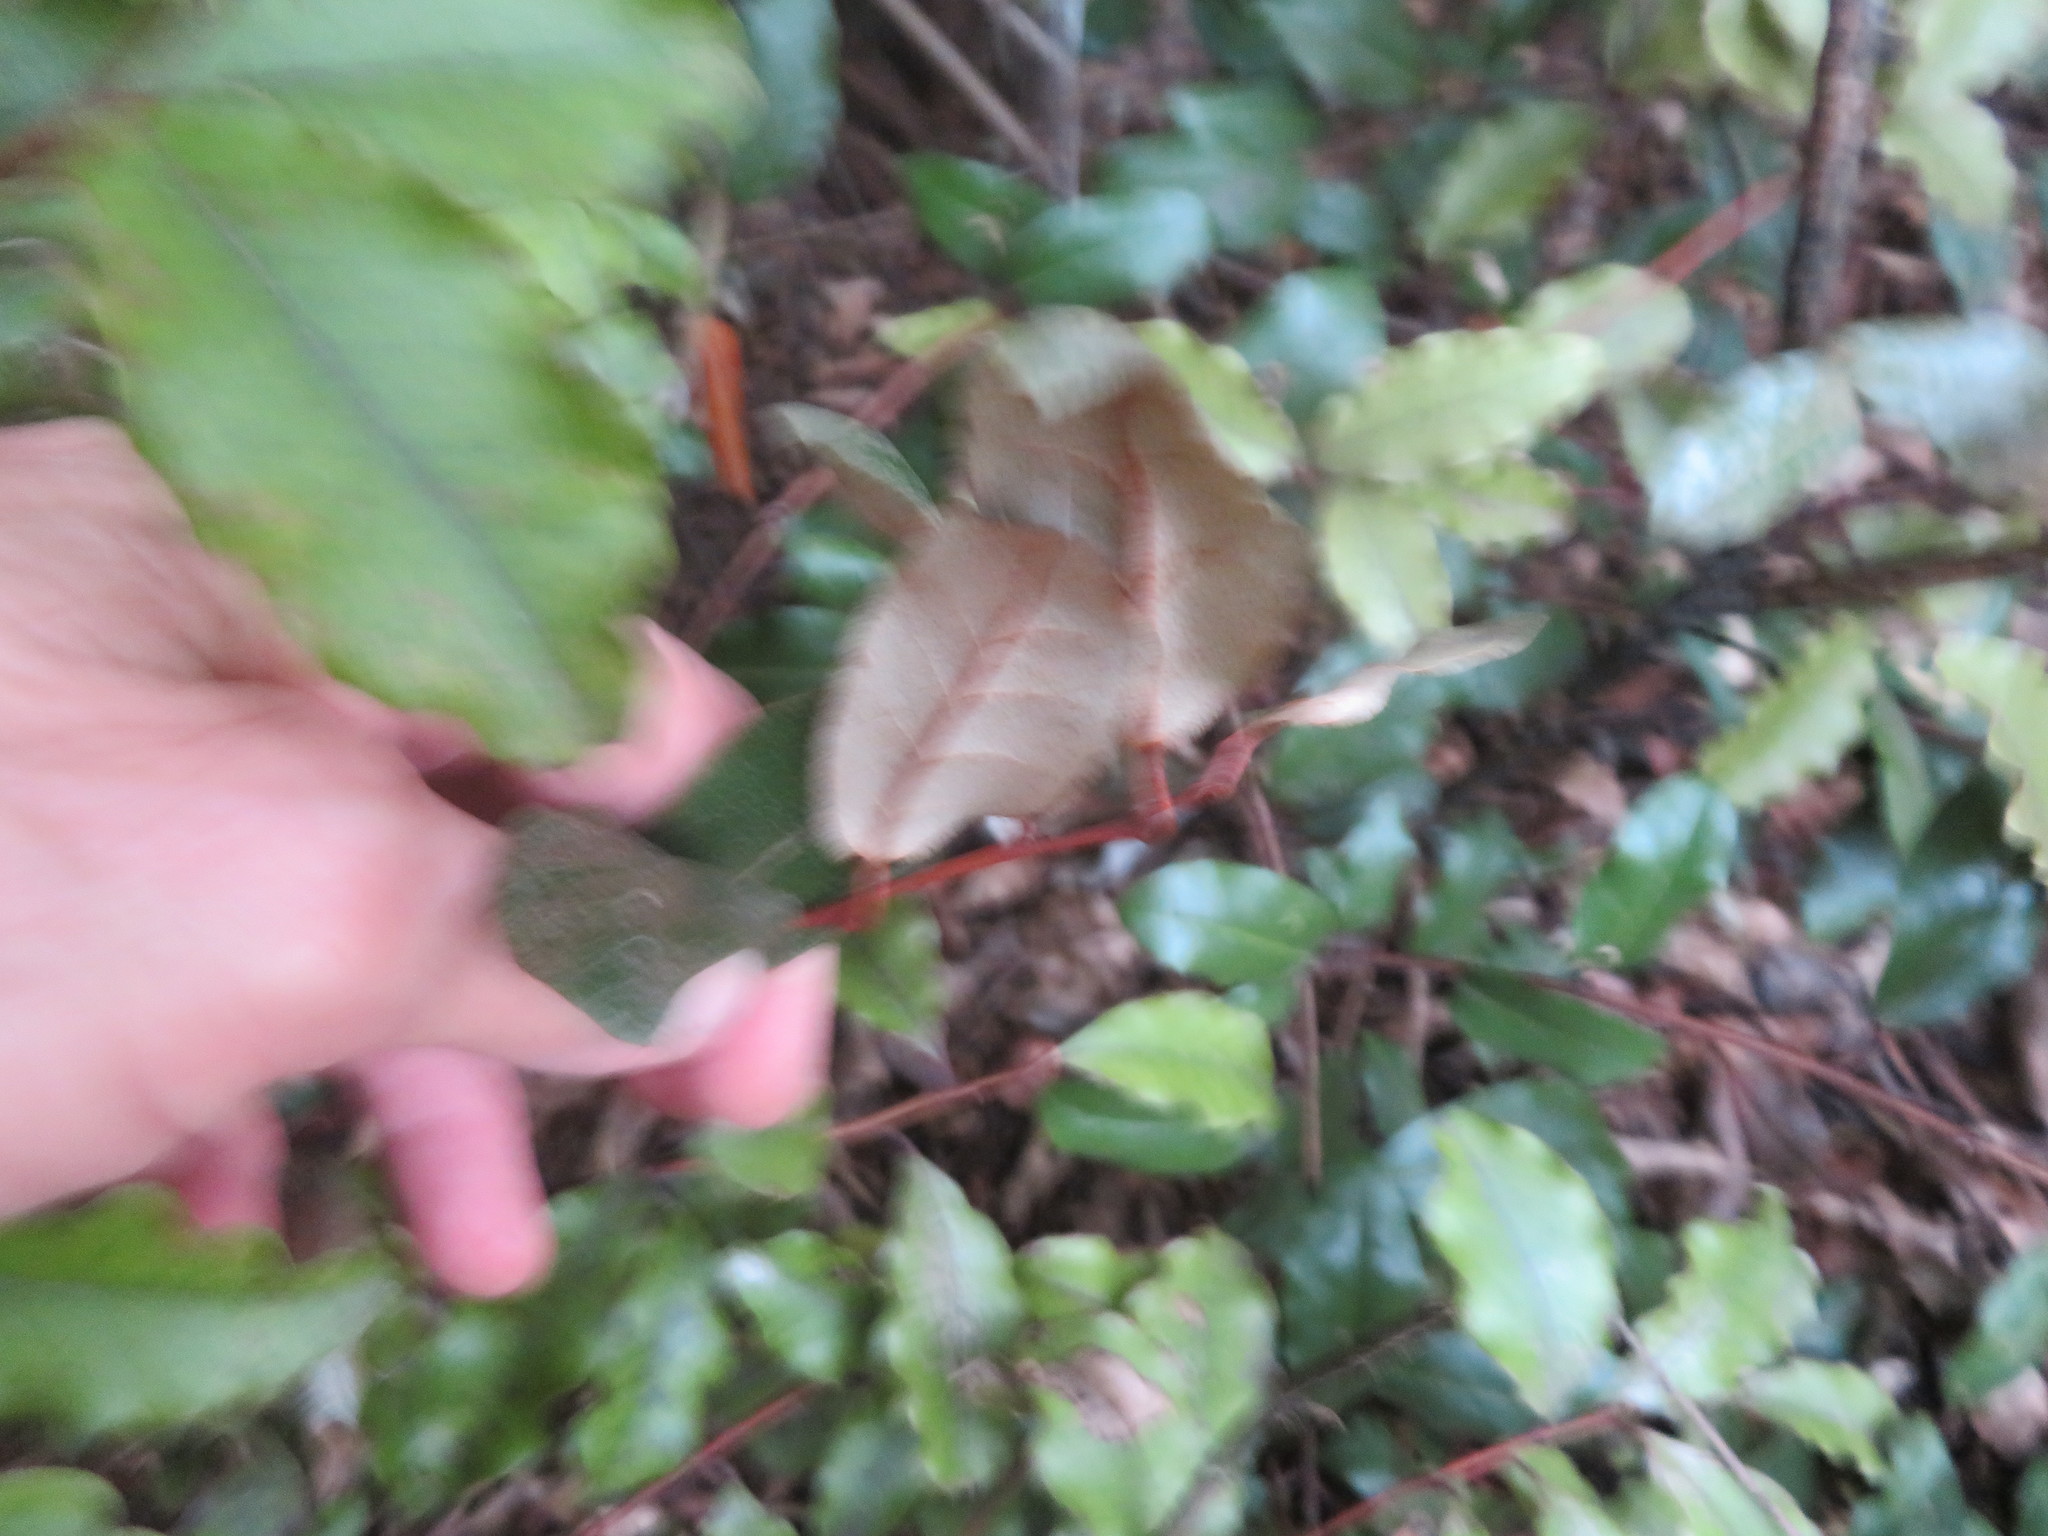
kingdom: Plantae
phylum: Tracheophyta
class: Magnoliopsida
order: Rosales
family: Elaeagnaceae
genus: Elaeagnus
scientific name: Elaeagnus reflexa
